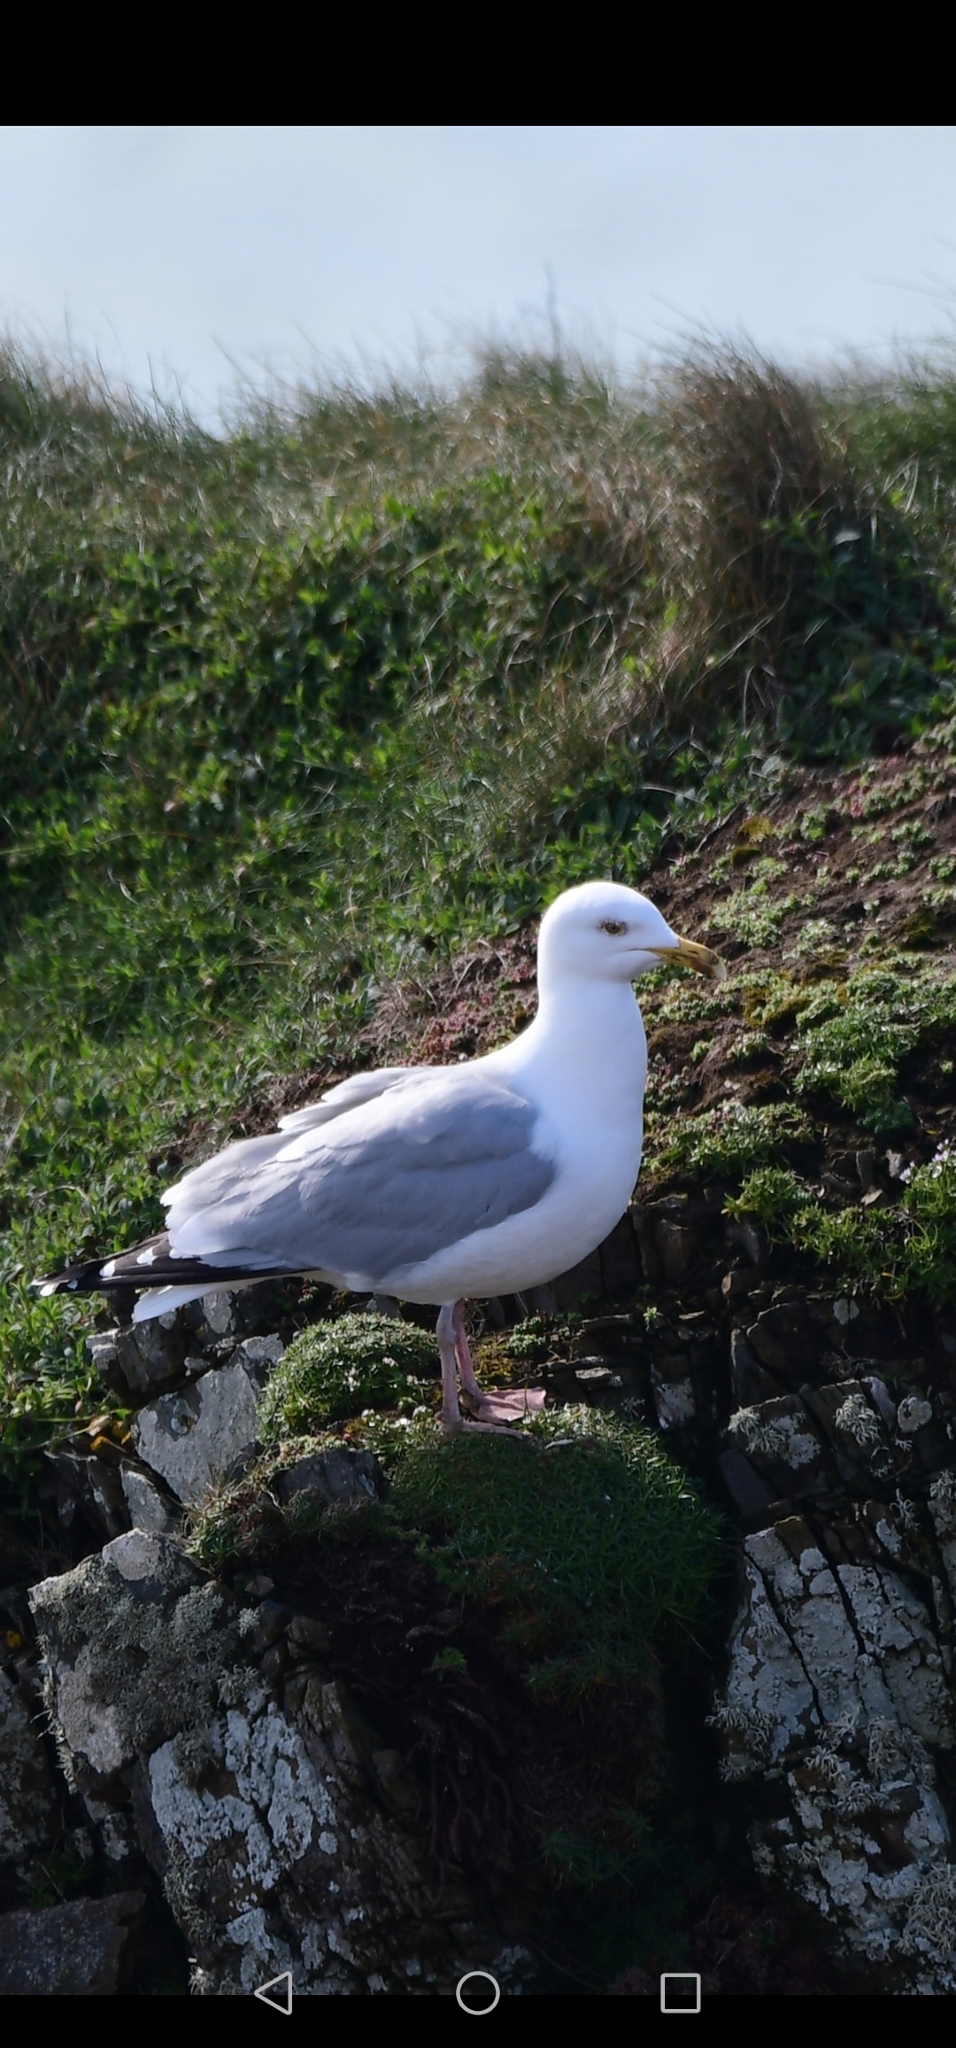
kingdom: Animalia
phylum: Chordata
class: Aves
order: Charadriiformes
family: Laridae
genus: Larus
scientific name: Larus argentatus
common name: Herring gull
